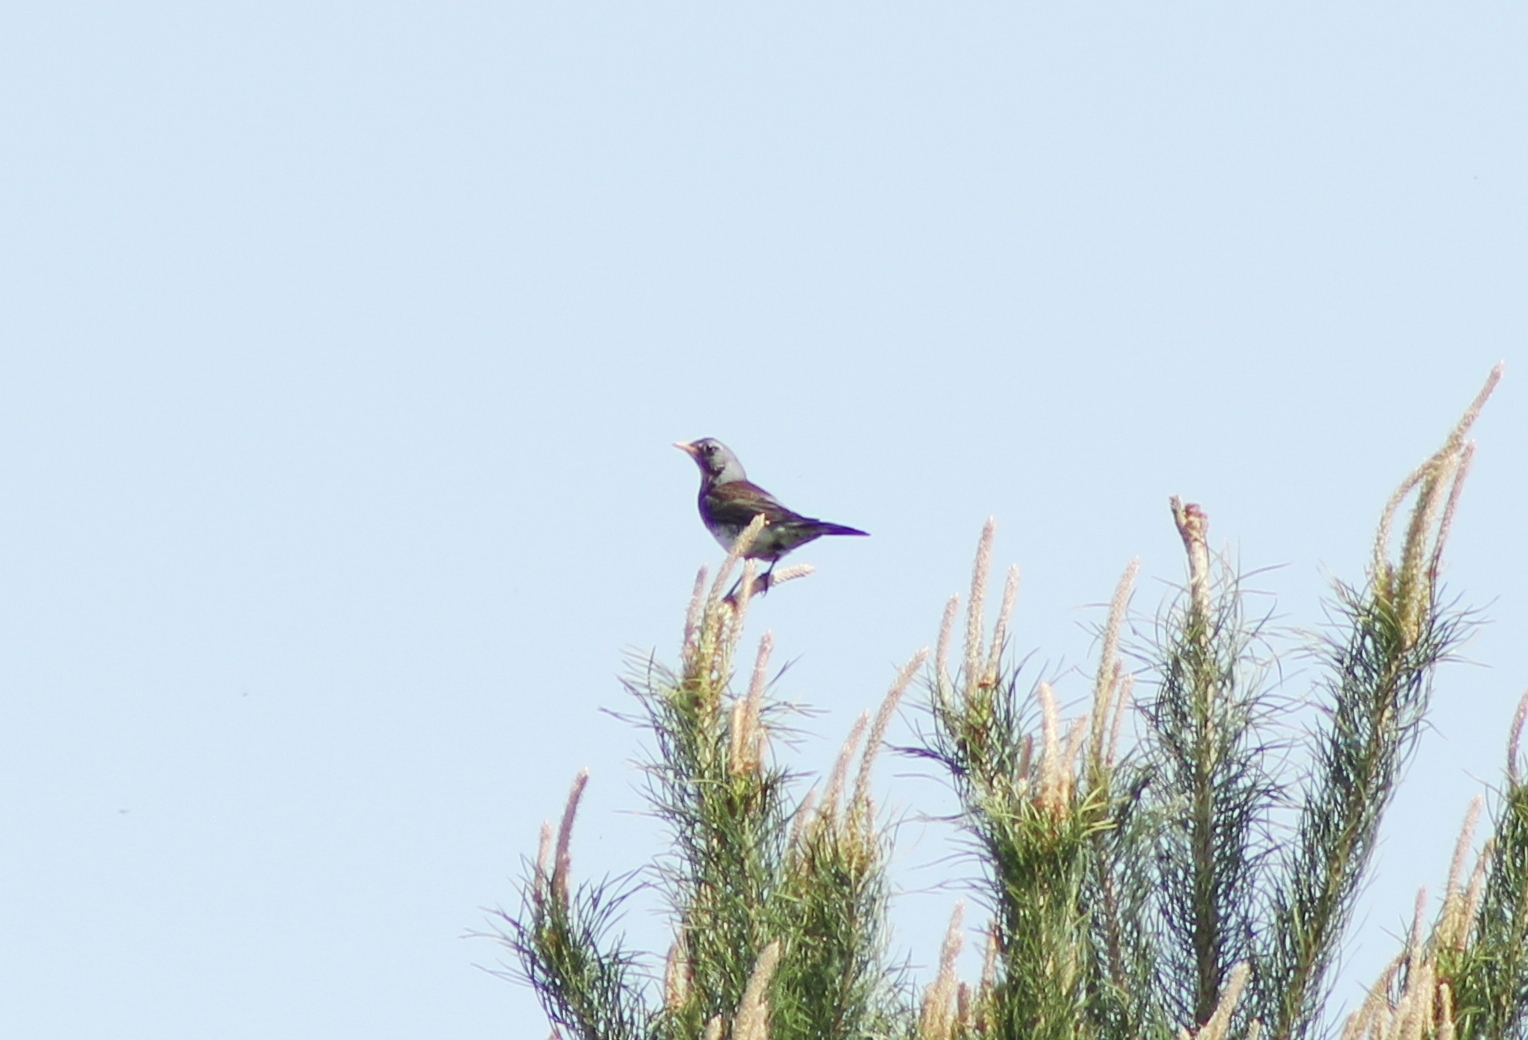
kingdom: Animalia
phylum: Chordata
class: Aves
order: Passeriformes
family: Turdidae
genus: Turdus
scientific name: Turdus pilaris
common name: Fieldfare
